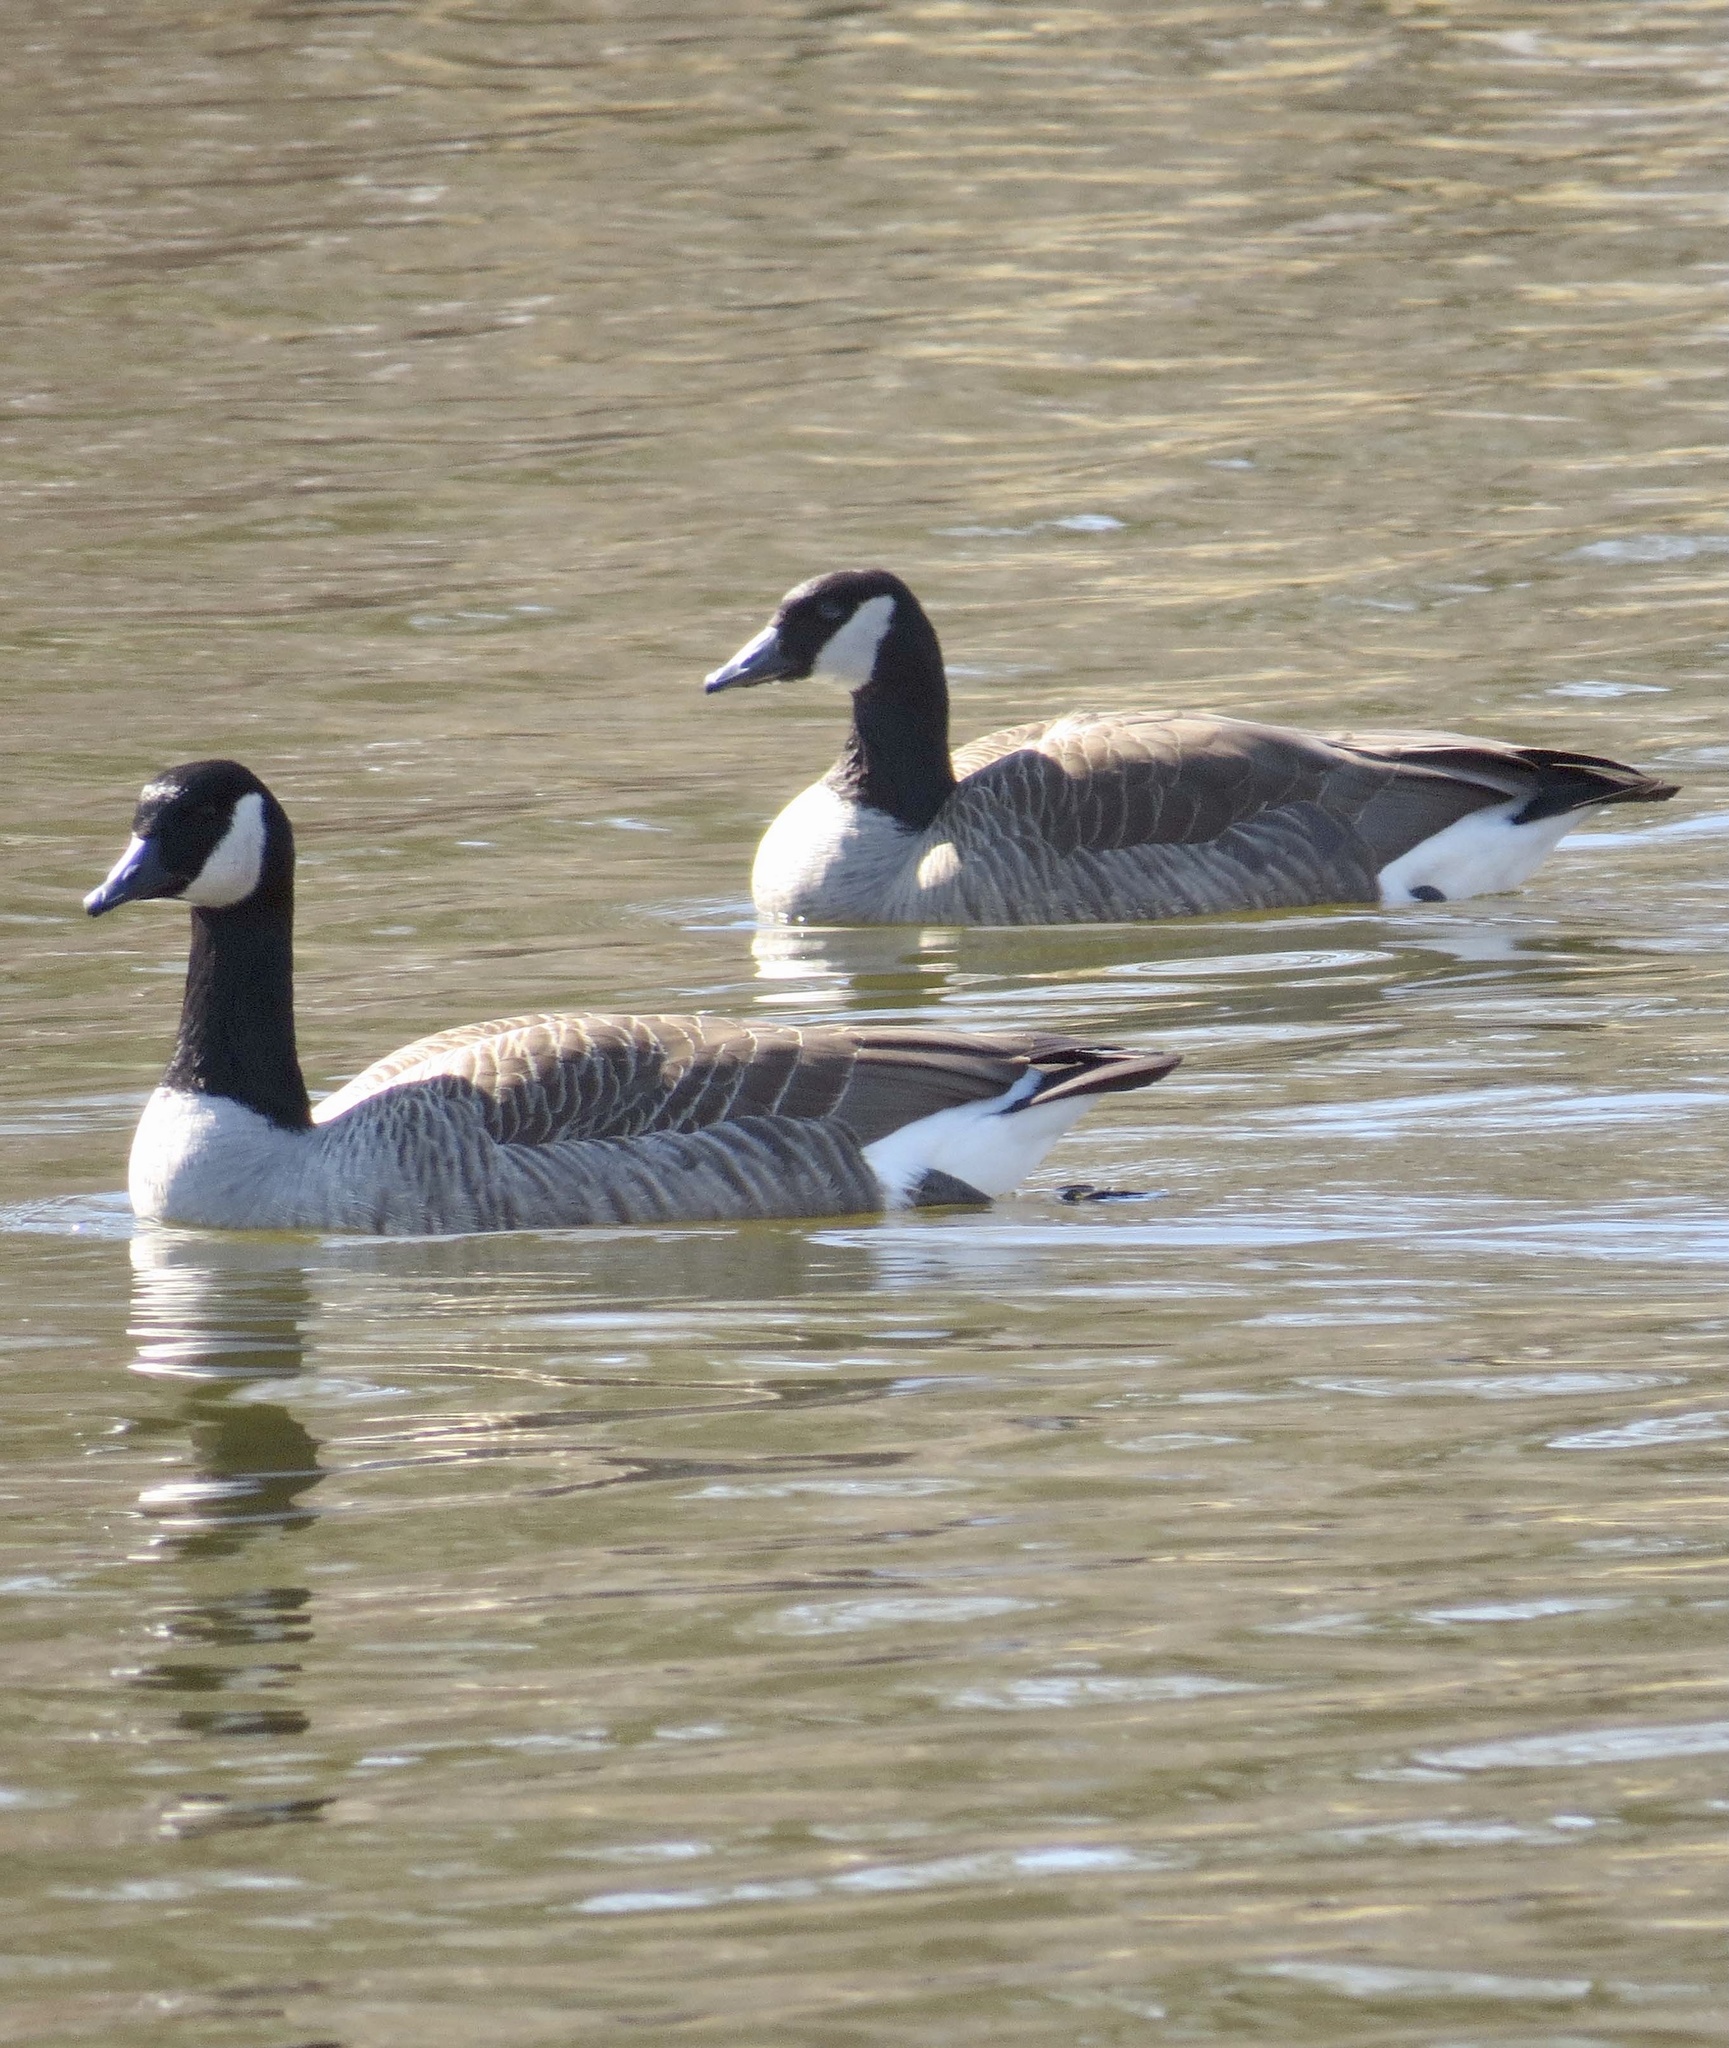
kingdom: Animalia
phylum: Chordata
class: Aves
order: Anseriformes
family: Anatidae
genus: Branta
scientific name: Branta canadensis
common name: Canada goose
